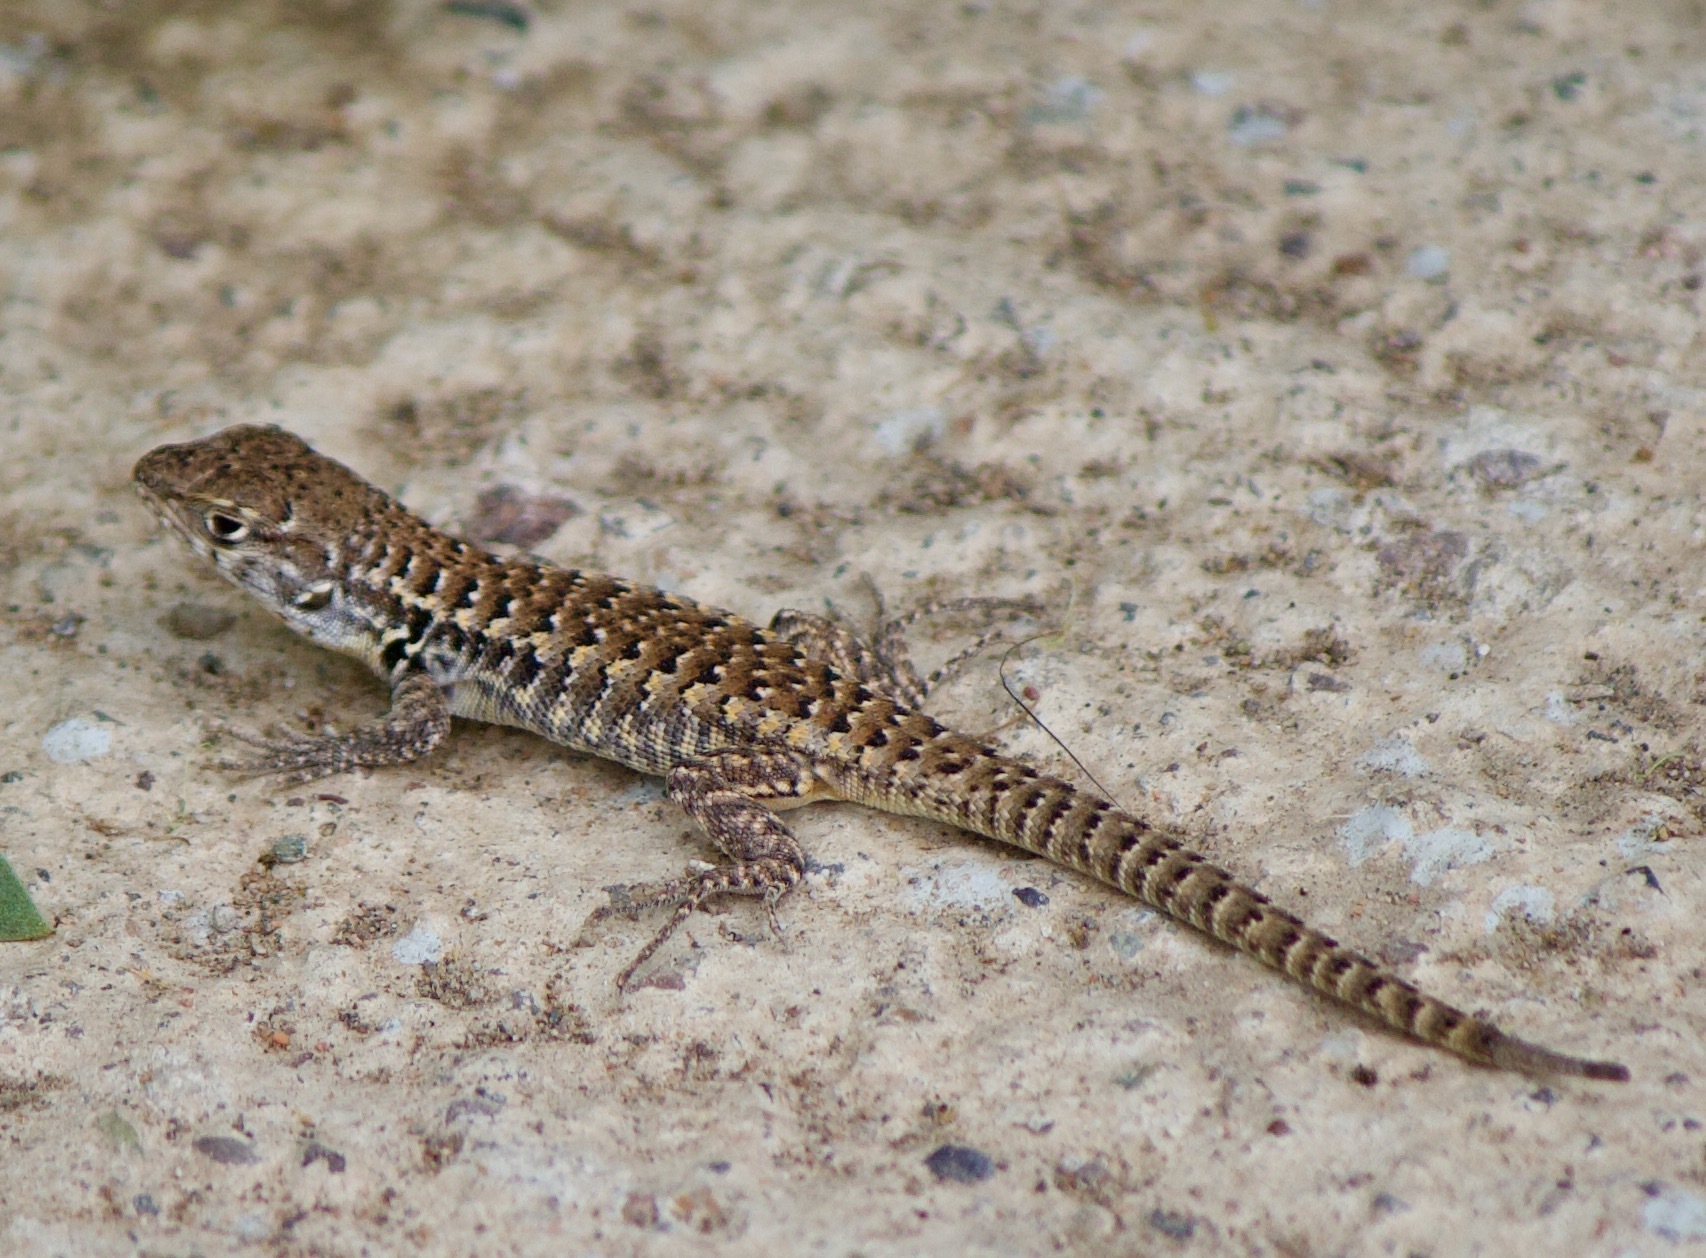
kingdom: Animalia
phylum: Chordata
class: Squamata
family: Liolaemidae
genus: Liolaemus
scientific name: Liolaemus zapallarensis
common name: Zapallaren tree iguana
